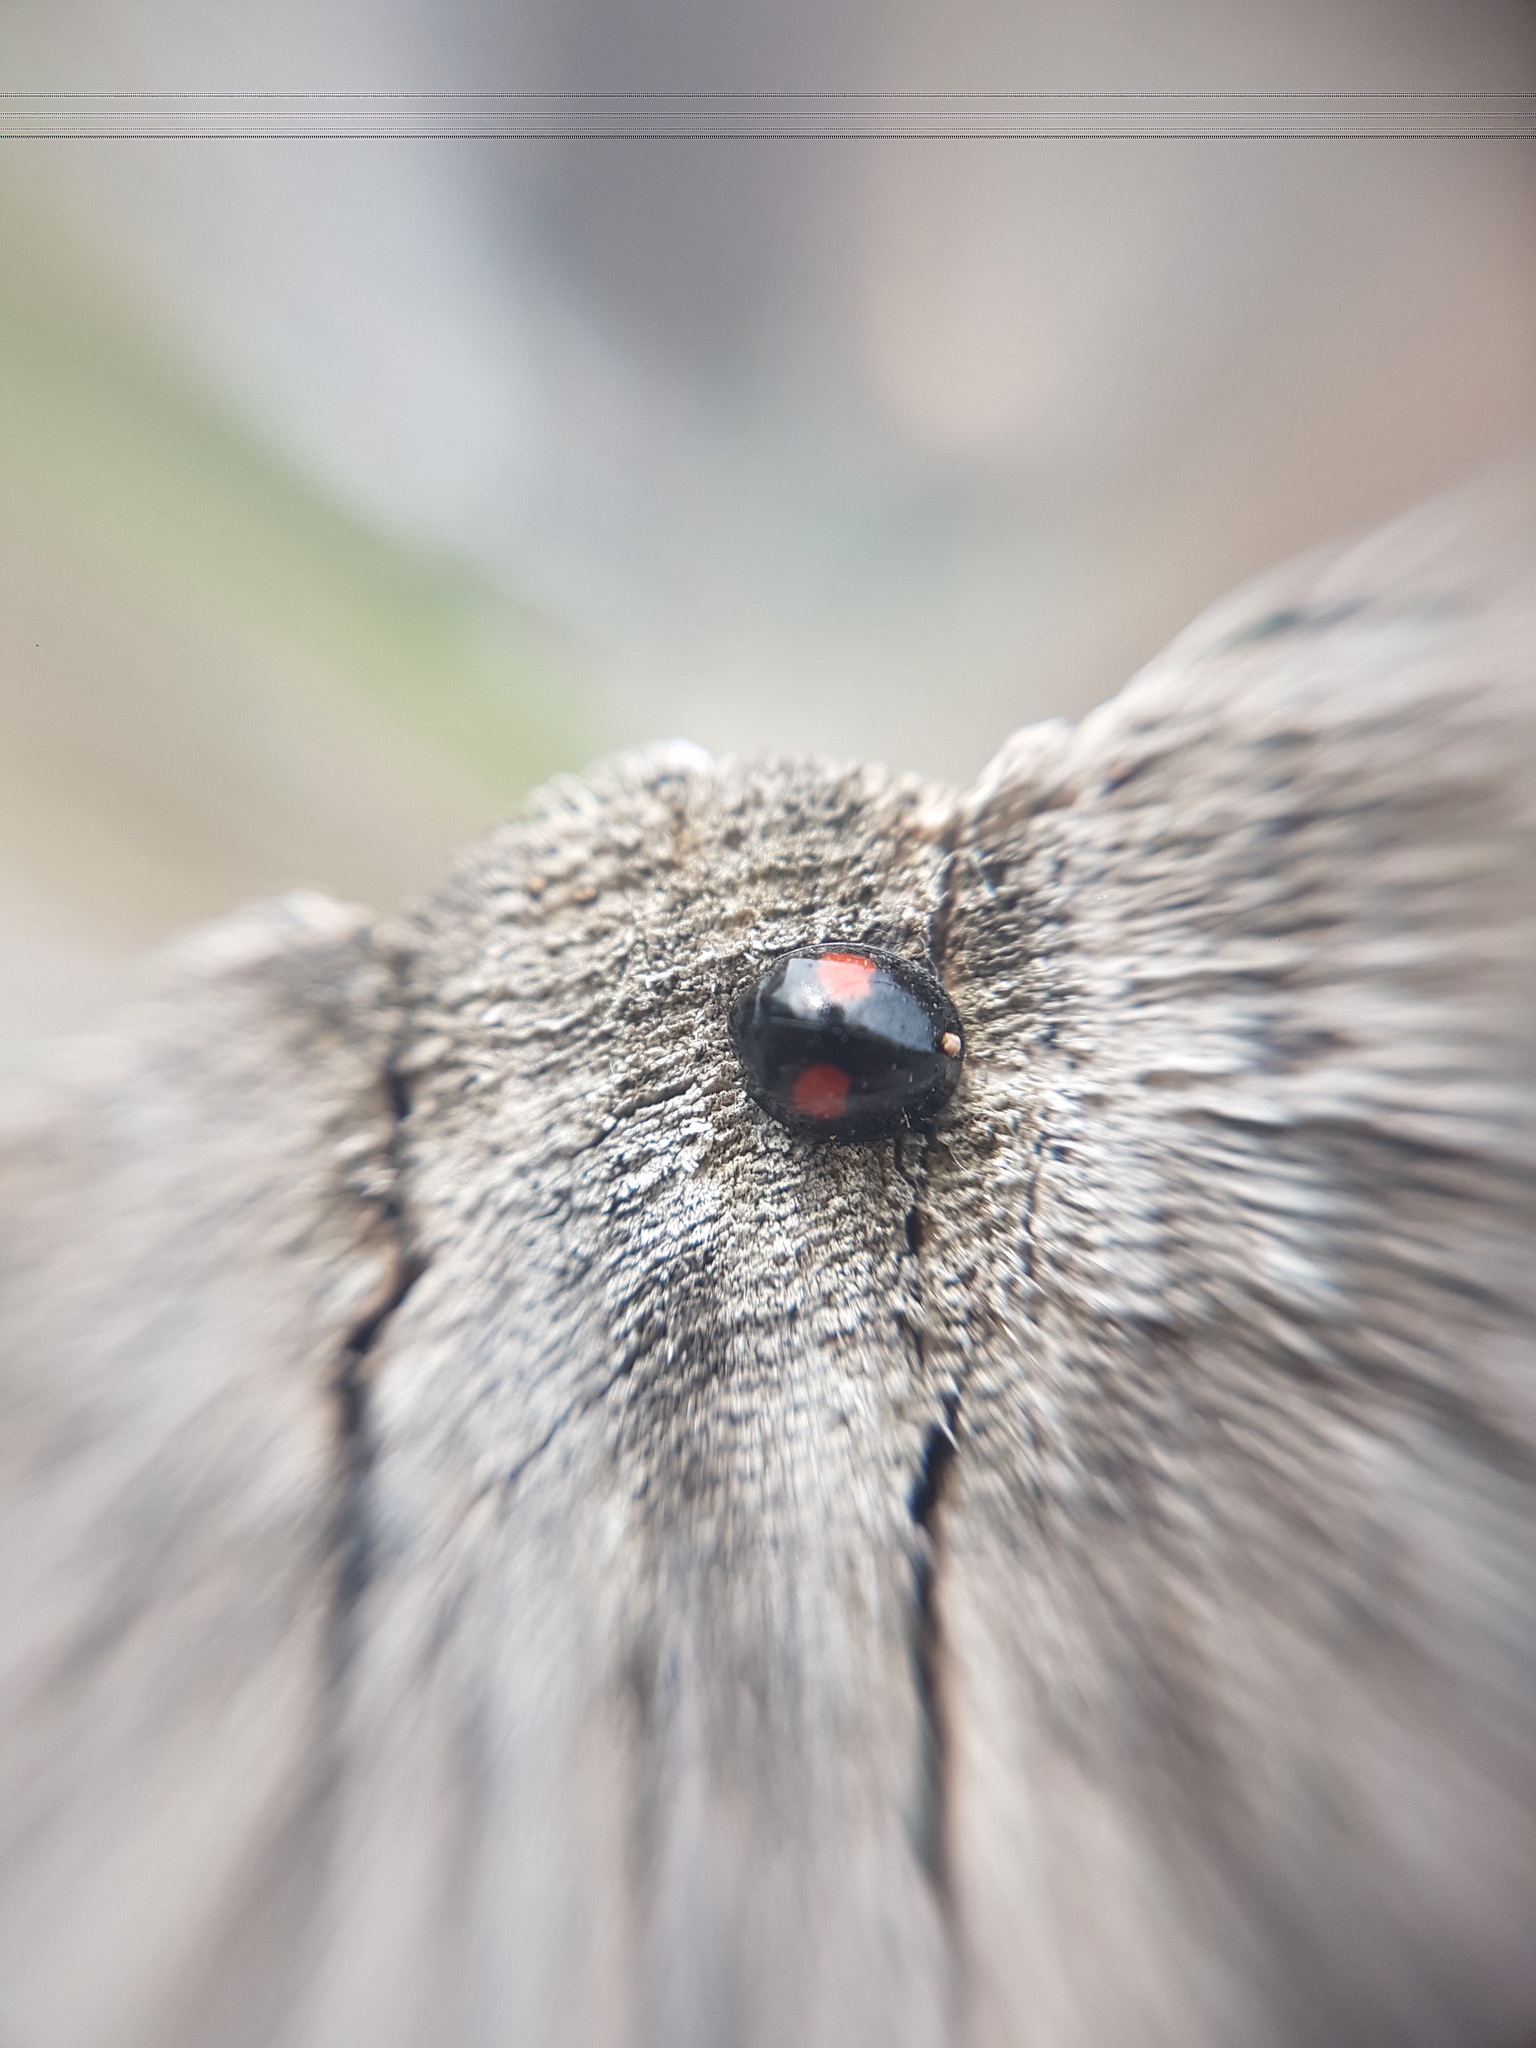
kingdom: Animalia
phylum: Arthropoda
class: Insecta
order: Coleoptera
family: Coccinellidae
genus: Chilocorus
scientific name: Chilocorus renipustulatus
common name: Kidney-spot ladybird
